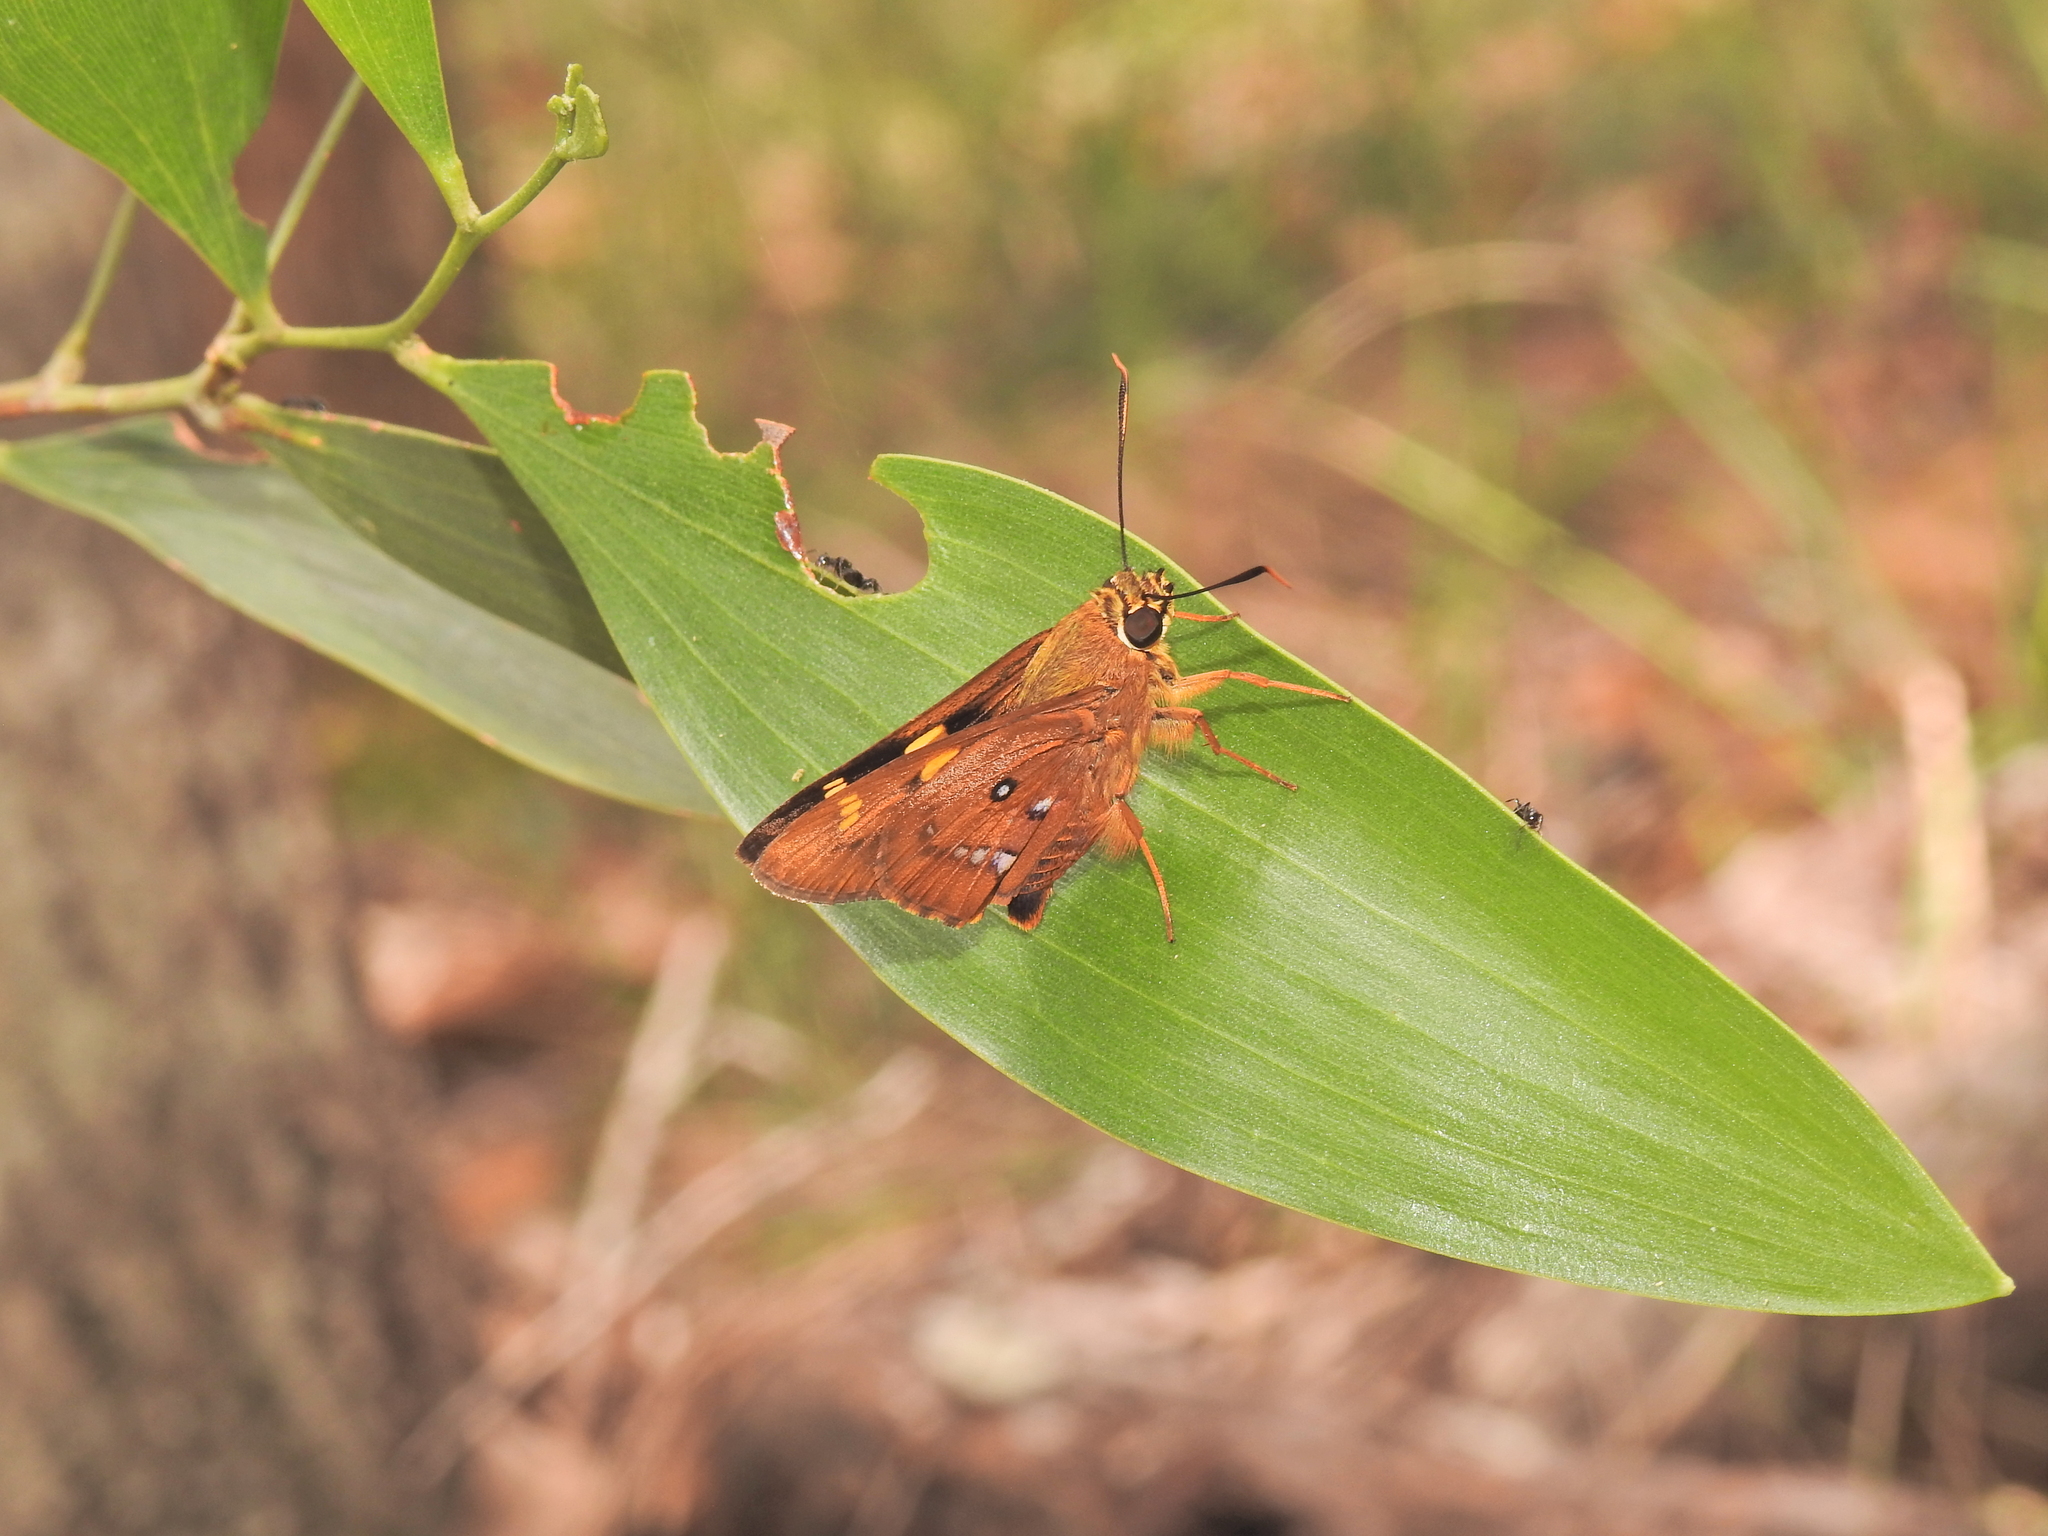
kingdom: Animalia
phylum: Arthropoda
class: Insecta
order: Lepidoptera
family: Hesperiidae
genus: Trapezites
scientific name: Trapezites symmomus
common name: Splendid ochre
